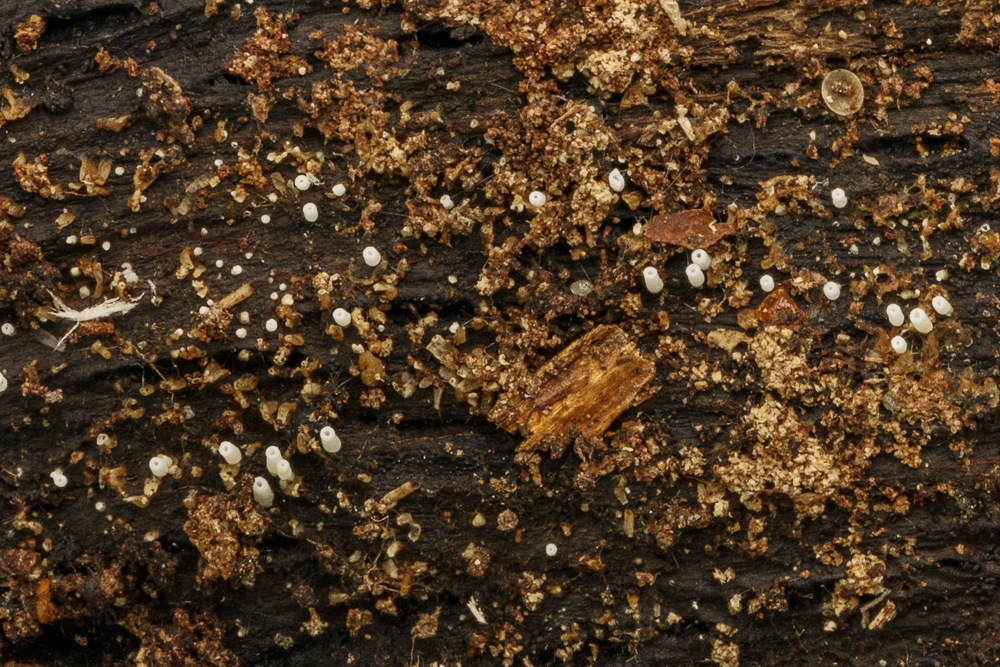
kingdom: Fungi
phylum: Basidiomycota
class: Agaricomycetes
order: Agaricales
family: Marasmiaceae
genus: Henningsomyces
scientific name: Henningsomyces candidus
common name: White tubelet
